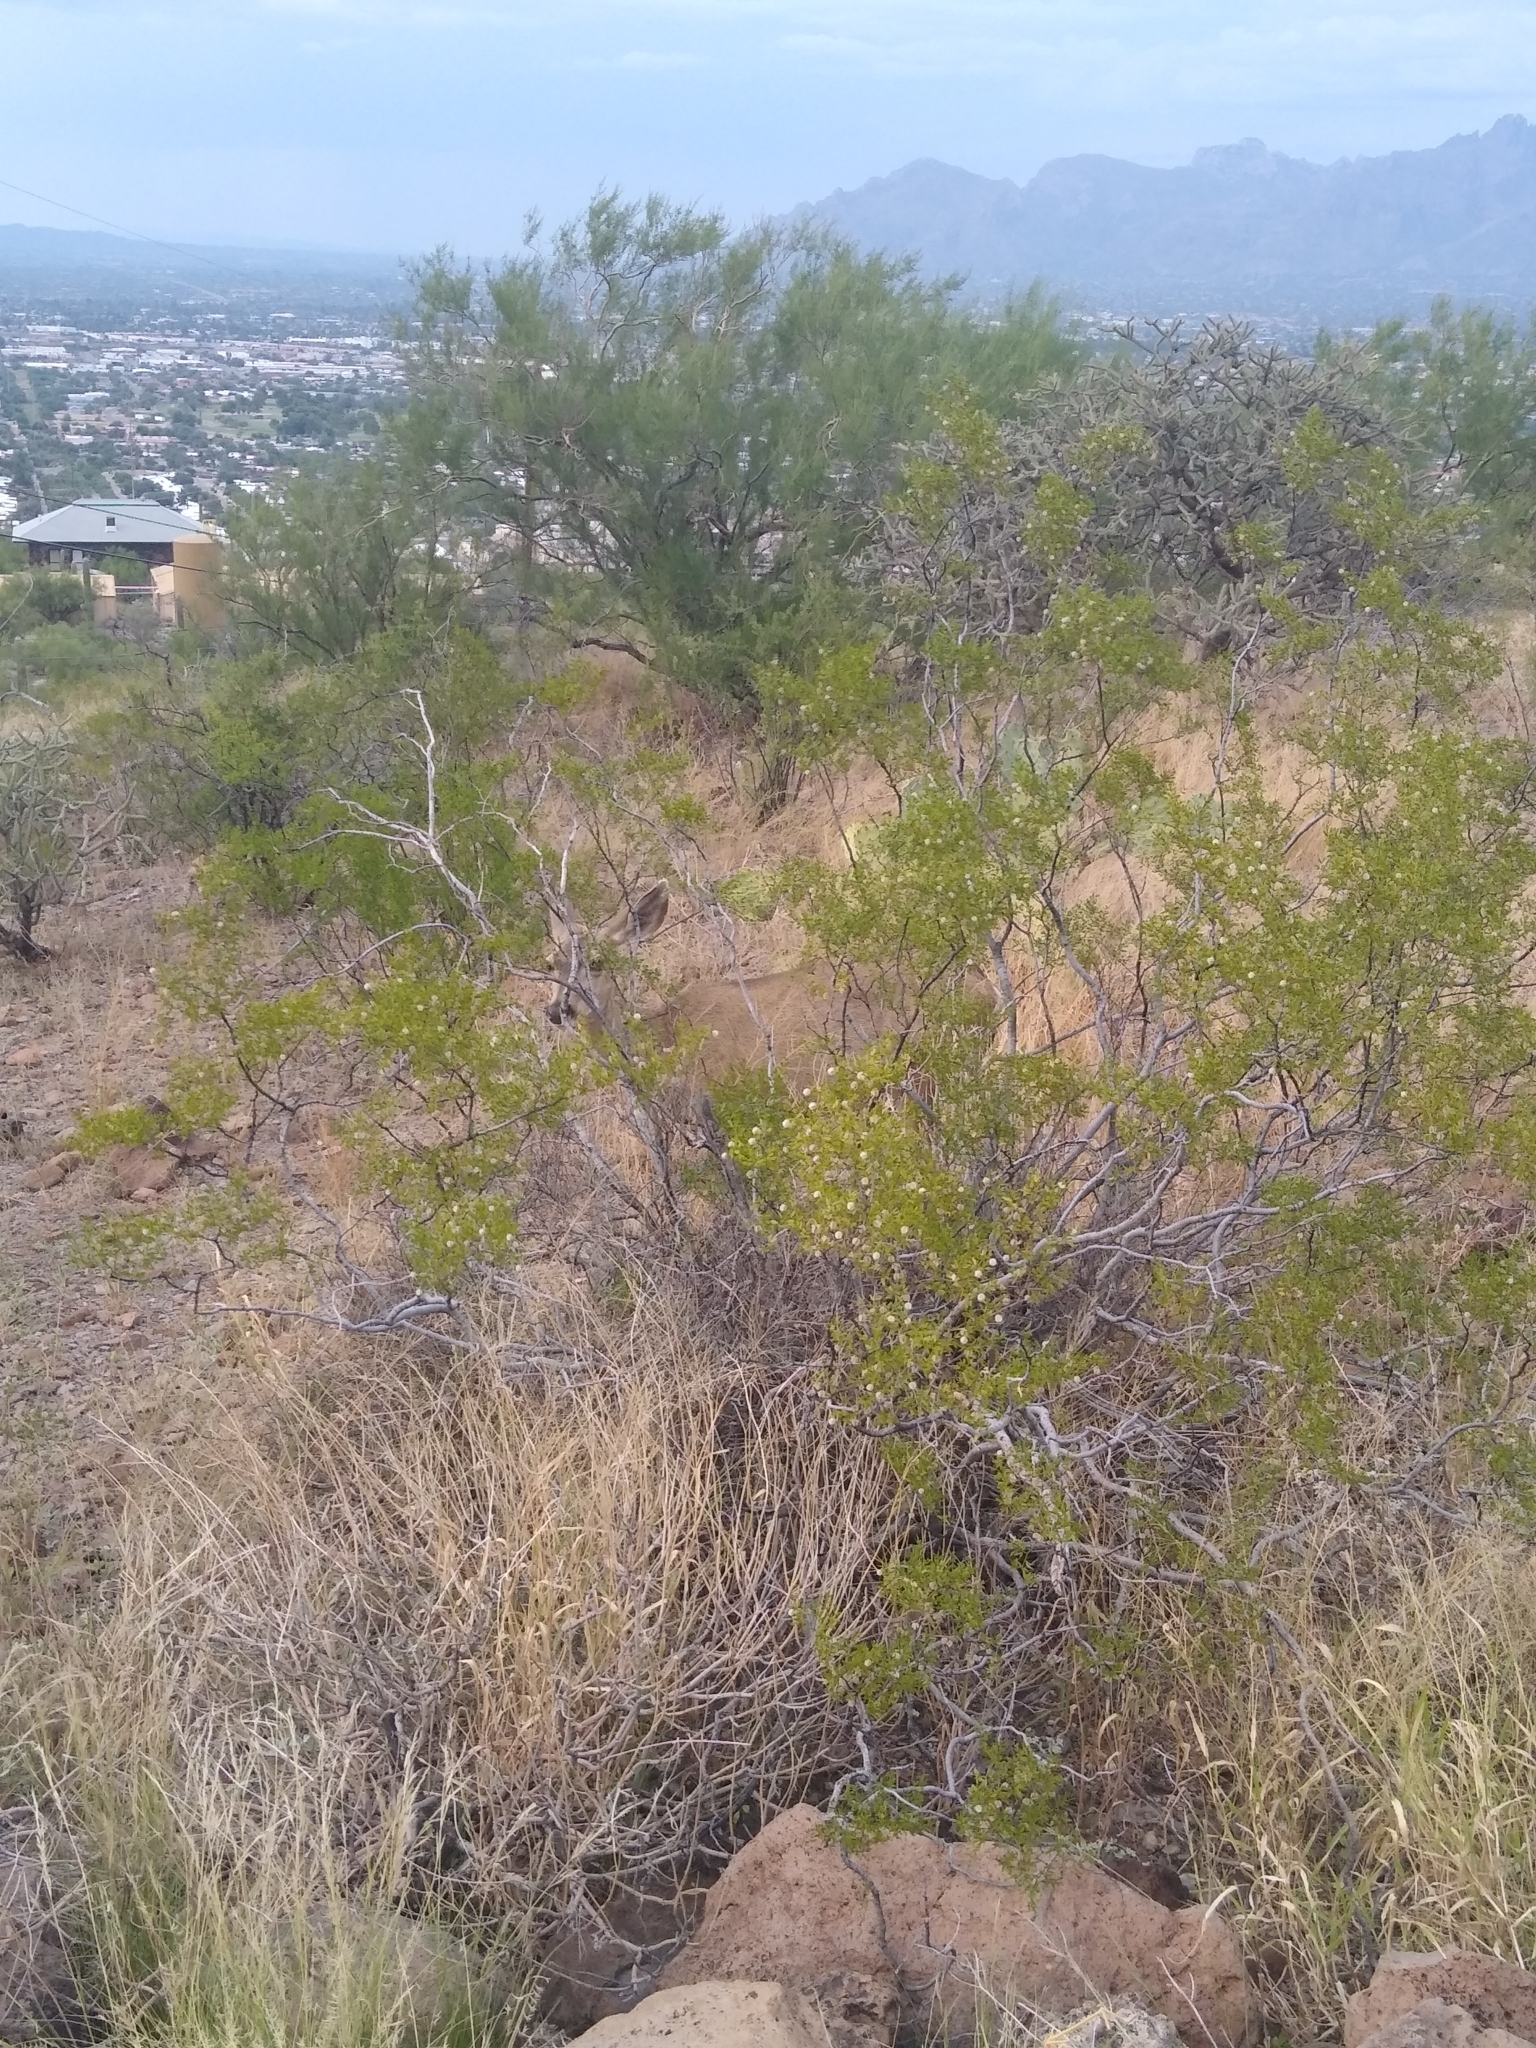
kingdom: Animalia
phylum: Chordata
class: Mammalia
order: Artiodactyla
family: Cervidae
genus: Odocoileus
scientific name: Odocoileus hemionus
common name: Mule deer
